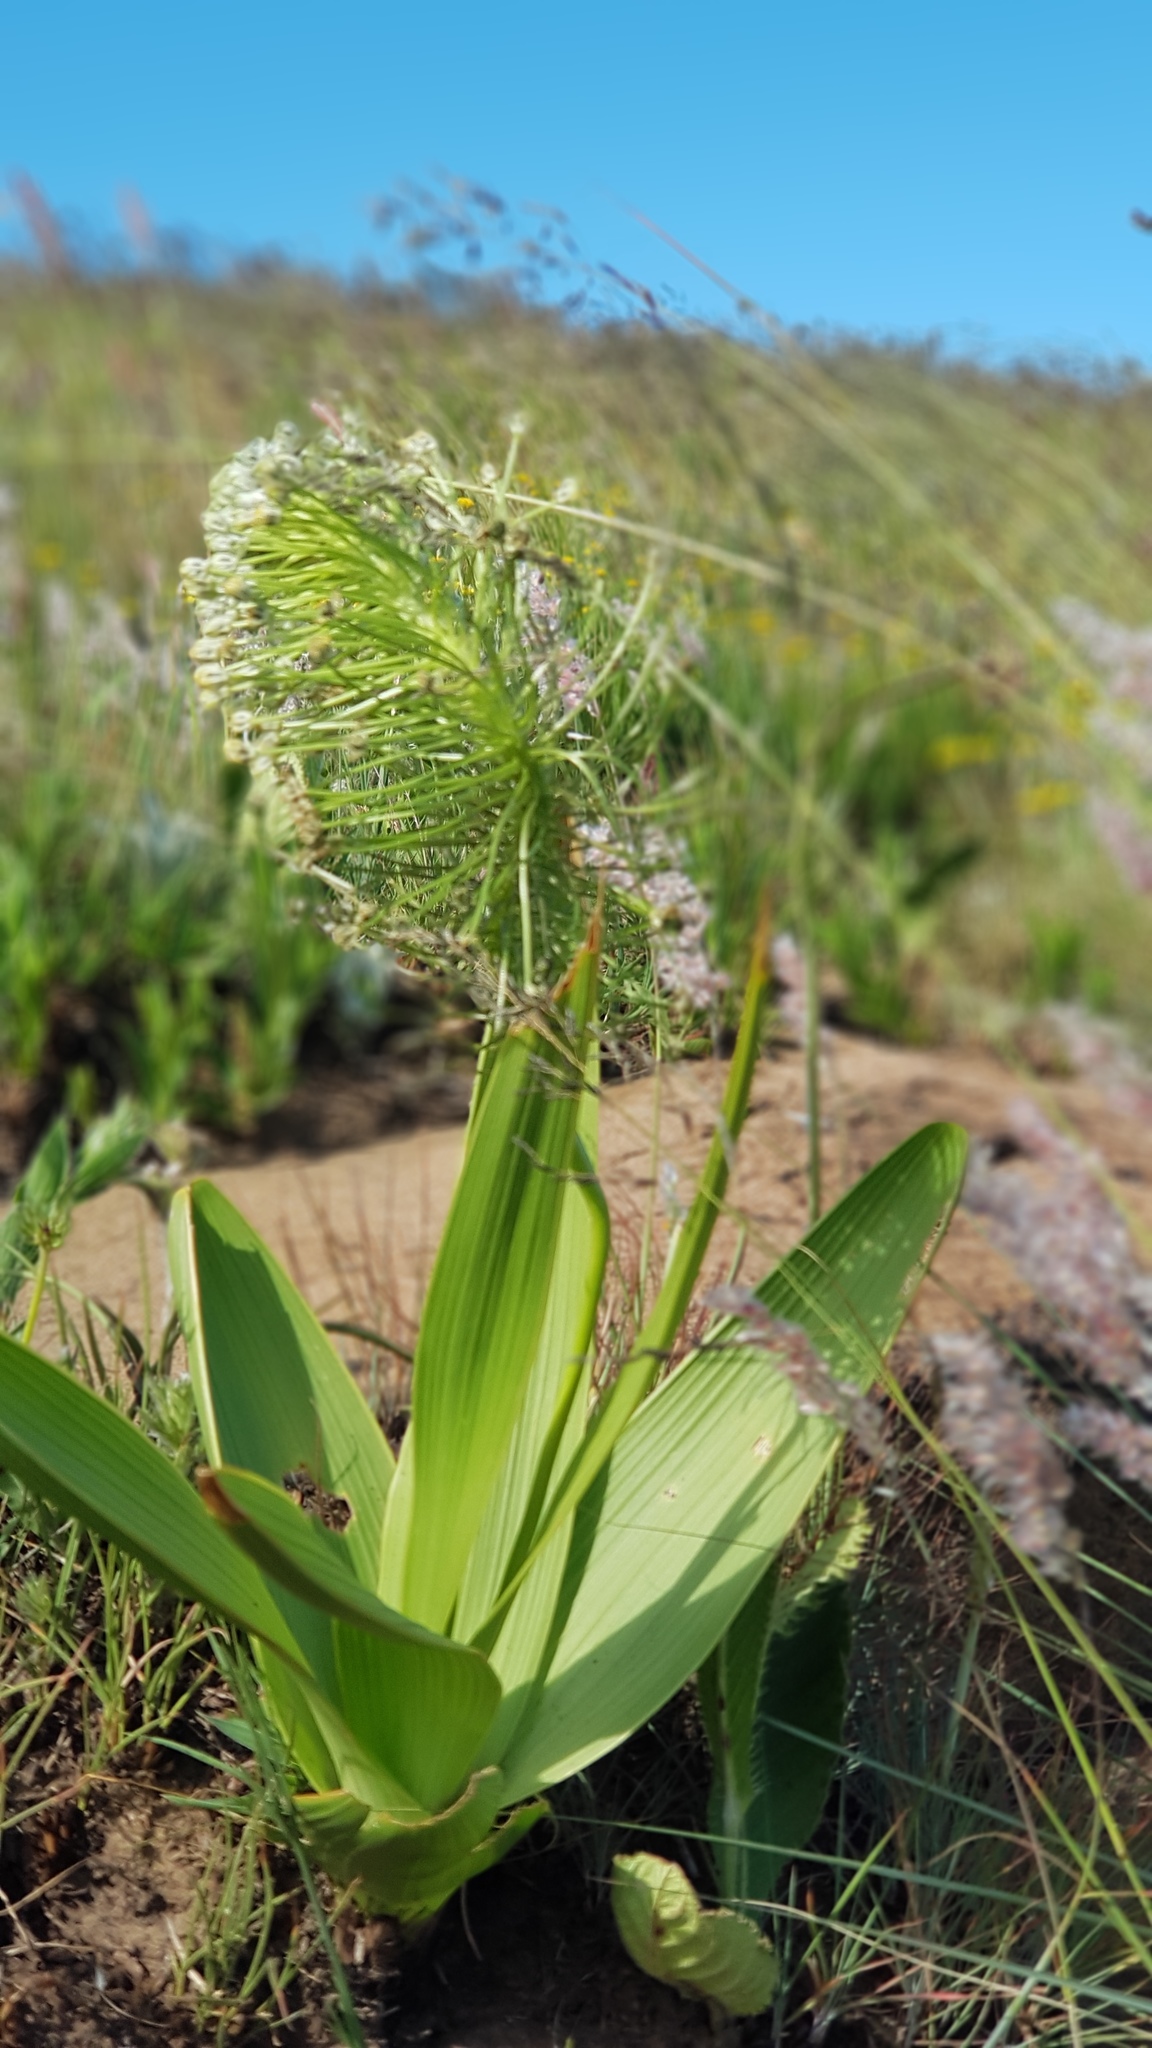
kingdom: Plantae
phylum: Tracheophyta
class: Liliopsida
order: Asparagales
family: Asparagaceae
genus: Schizocarphus
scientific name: Schizocarphus nervosus
